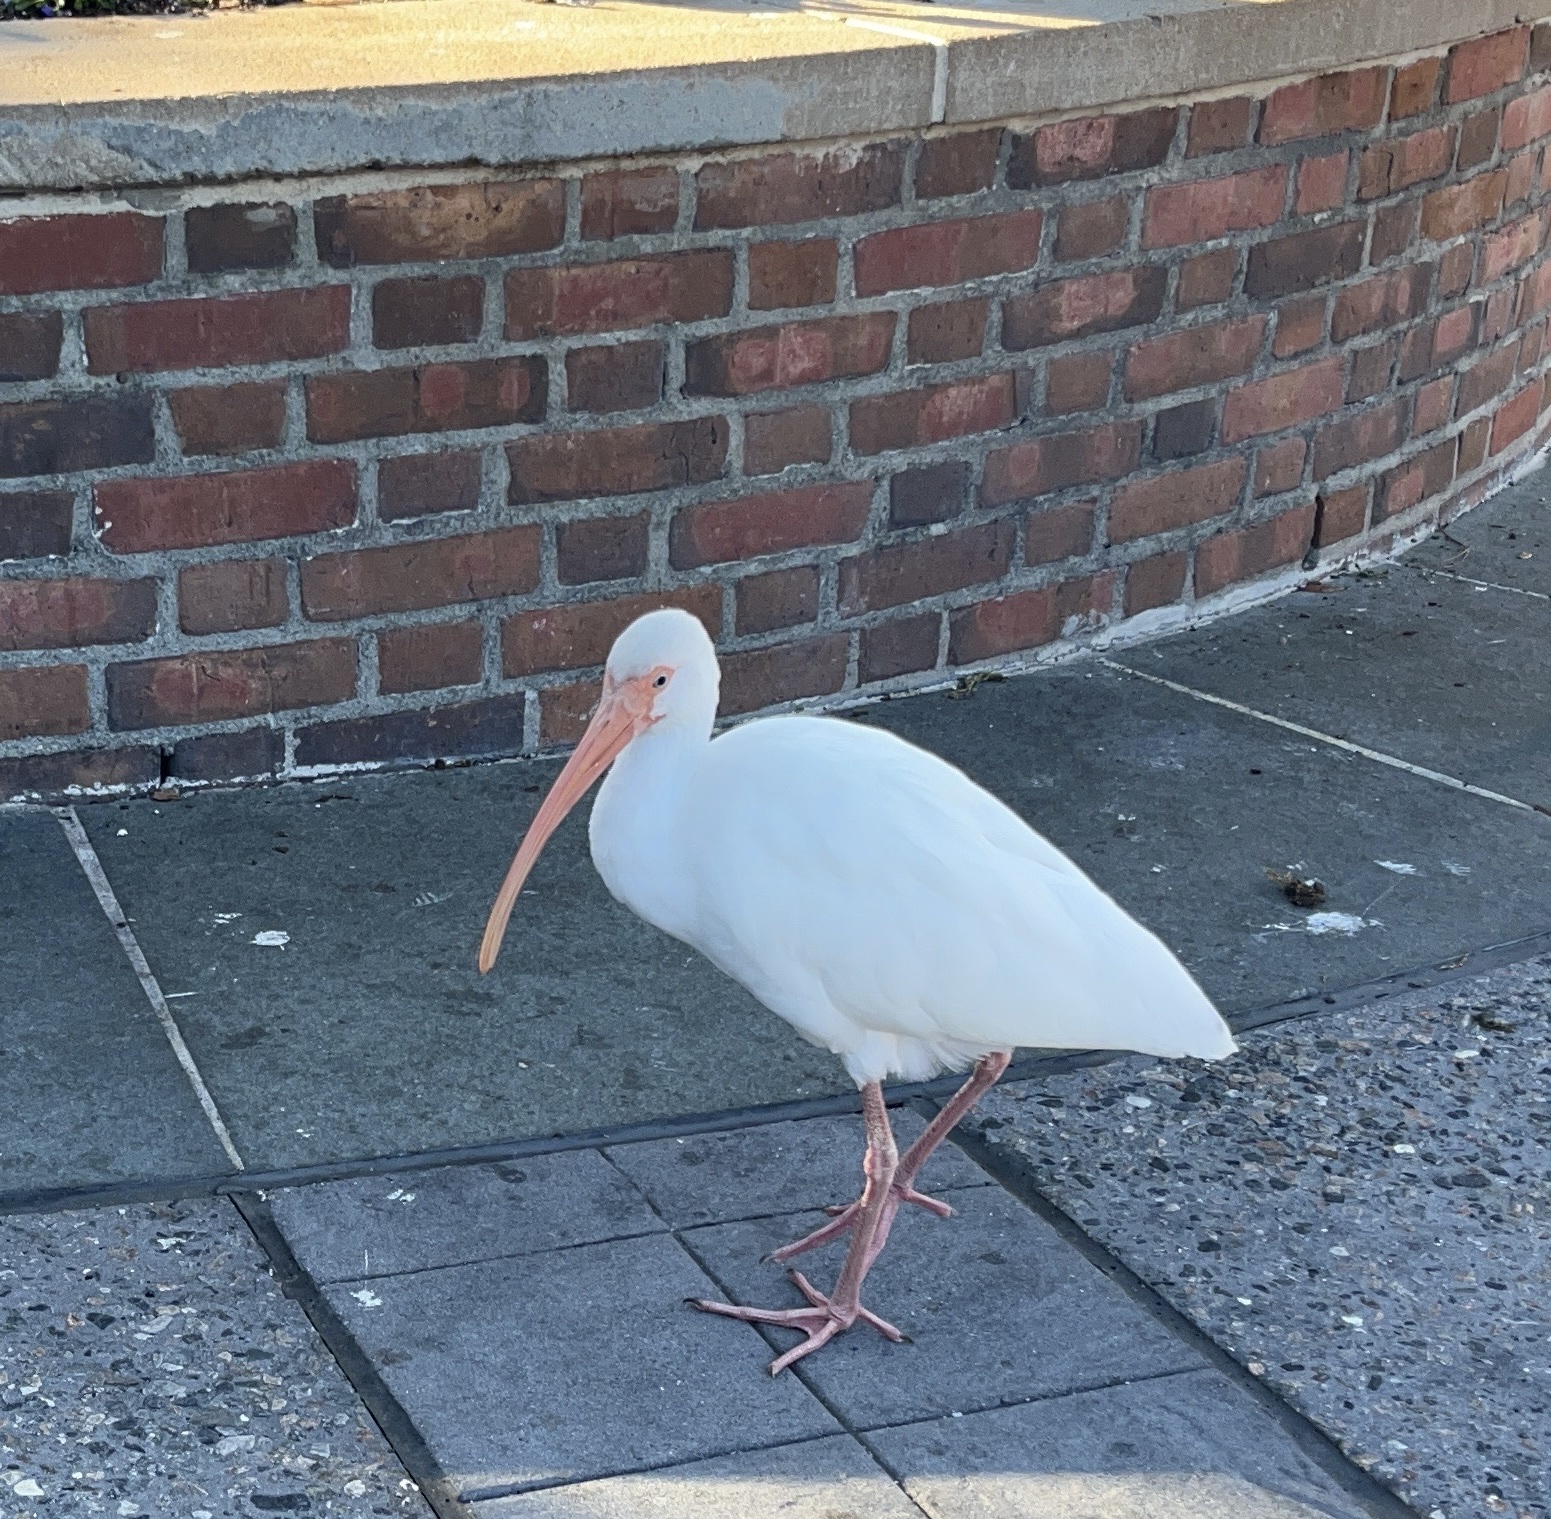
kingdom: Animalia
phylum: Chordata
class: Aves
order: Pelecaniformes
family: Threskiornithidae
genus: Eudocimus
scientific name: Eudocimus albus
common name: White ibis
